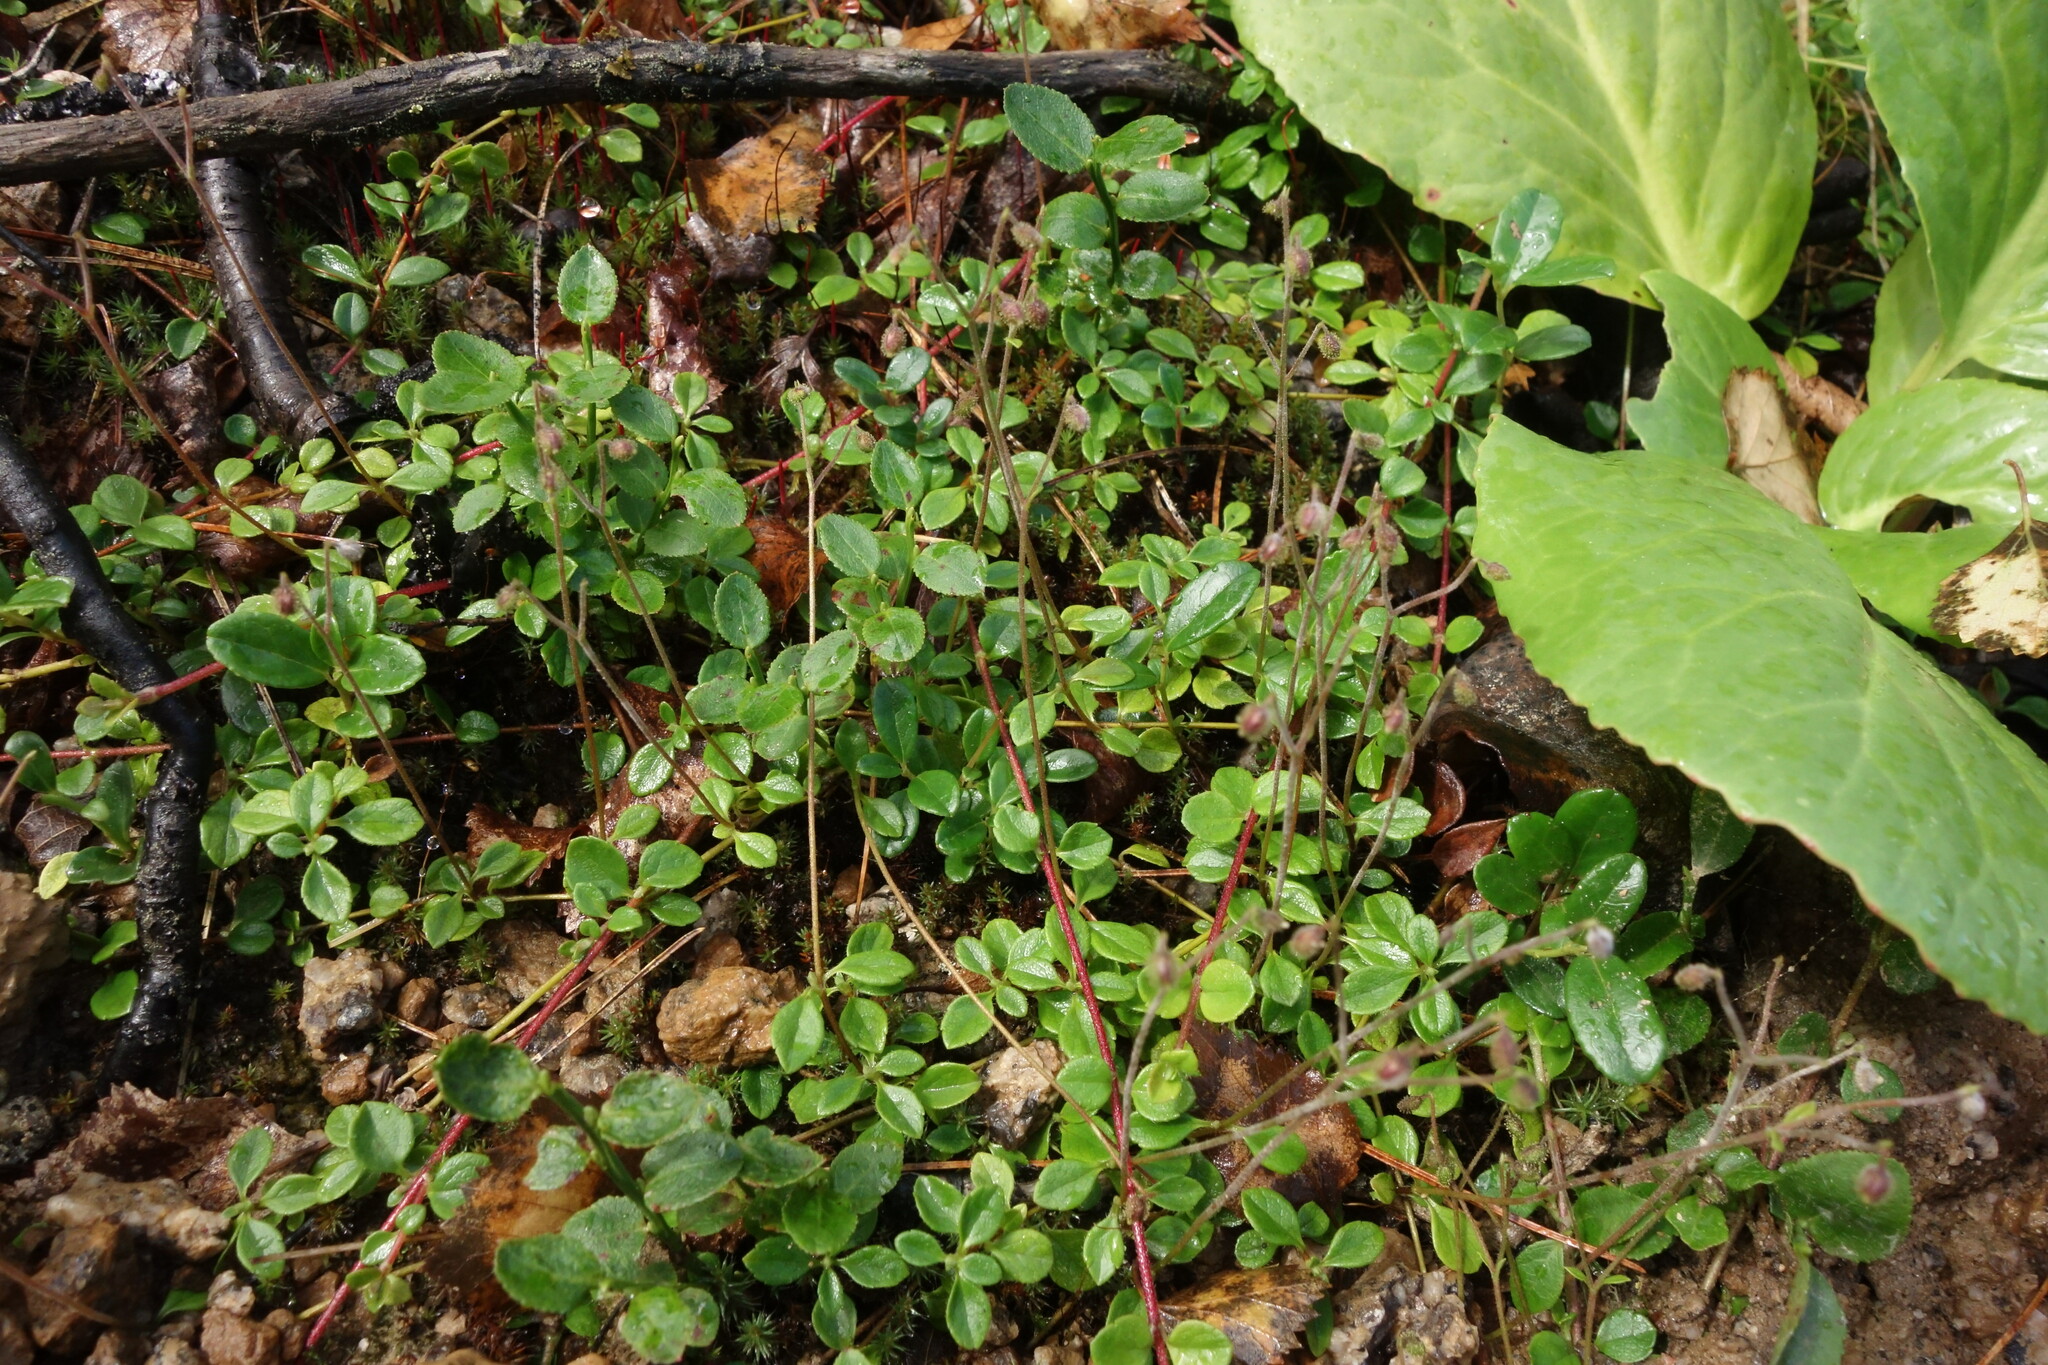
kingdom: Plantae
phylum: Tracheophyta
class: Magnoliopsida
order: Dipsacales
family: Caprifoliaceae
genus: Linnaea
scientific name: Linnaea borealis
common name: Twinflower
